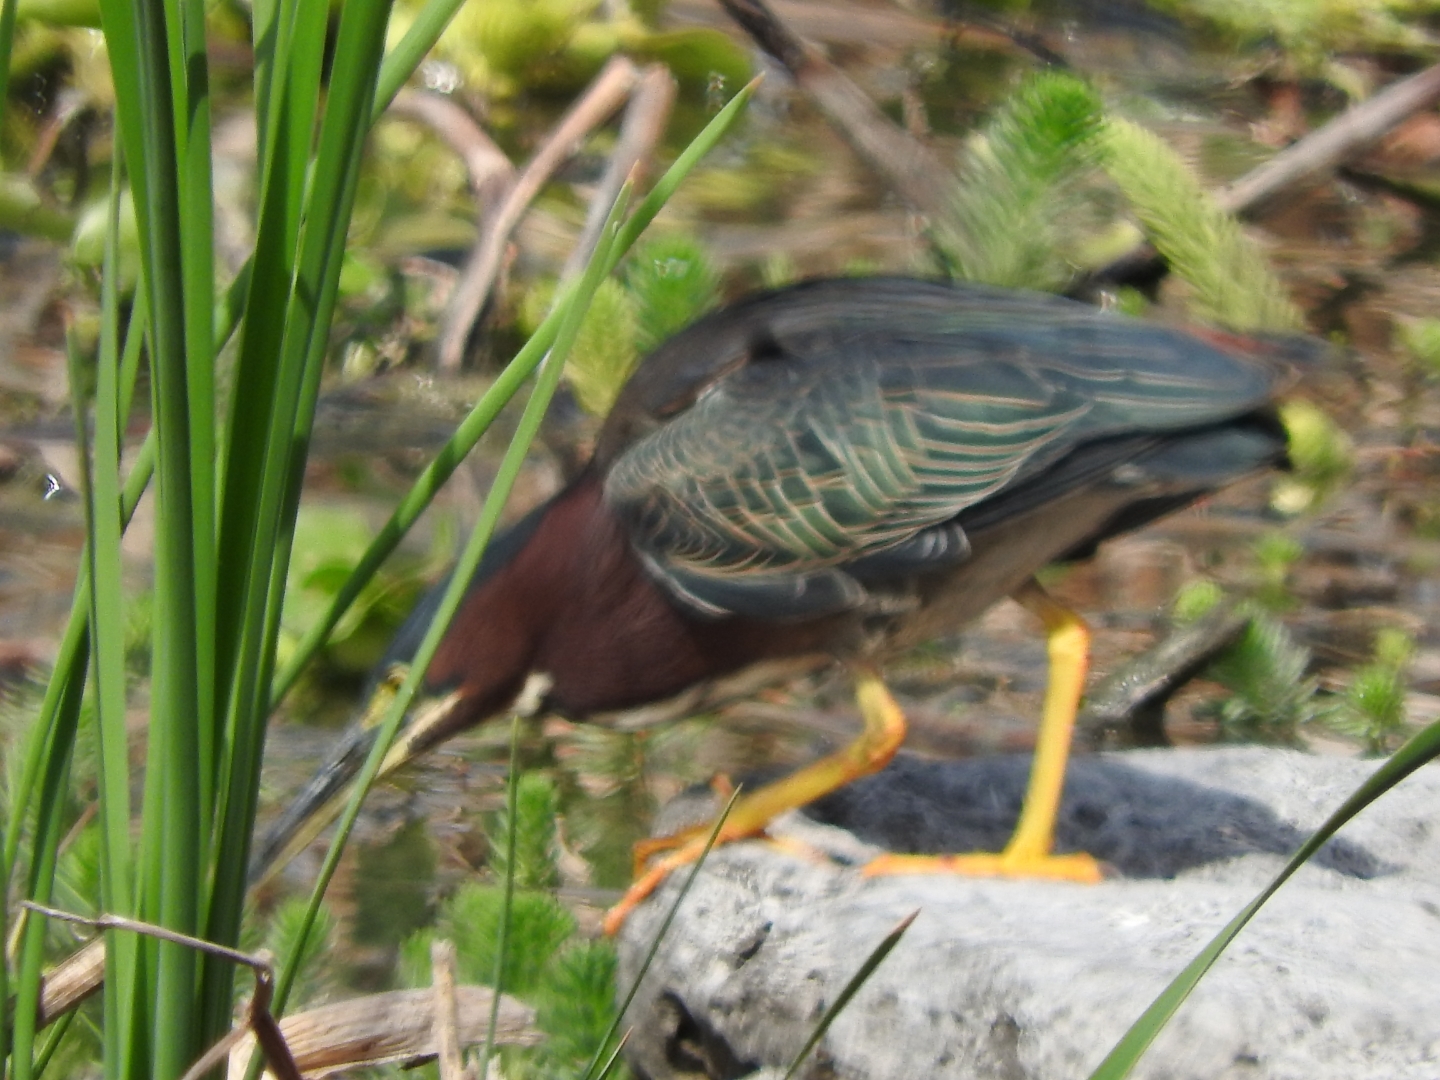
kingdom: Animalia
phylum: Chordata
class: Aves
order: Pelecaniformes
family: Ardeidae
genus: Butorides
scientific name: Butorides virescens
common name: Green heron
